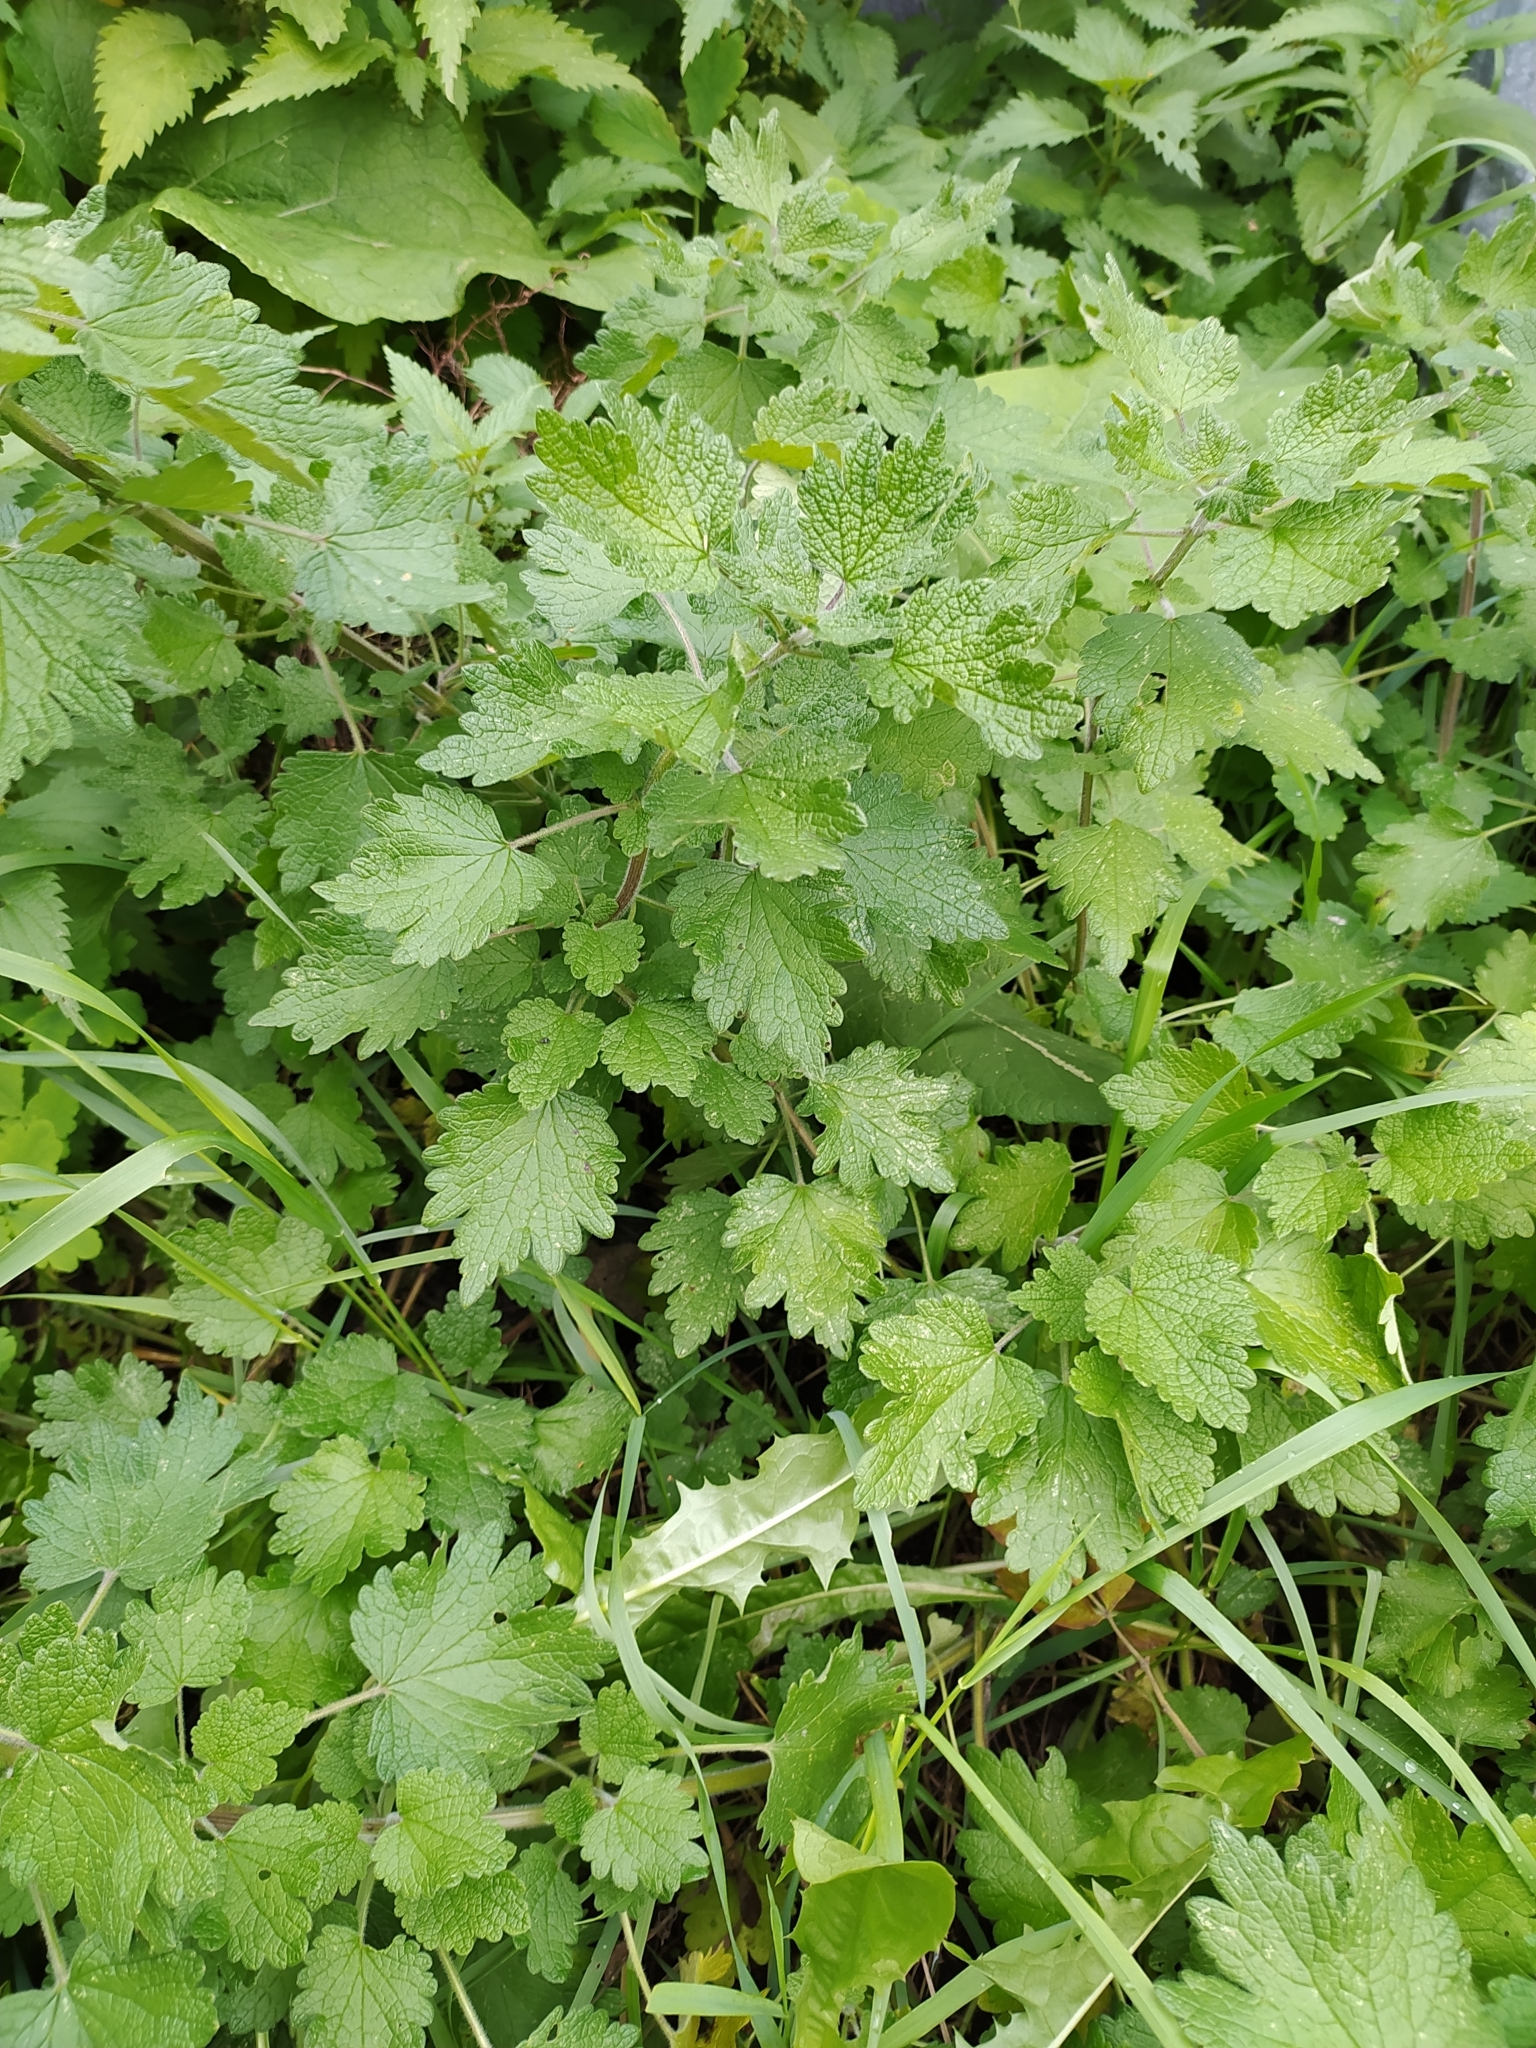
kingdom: Plantae
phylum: Tracheophyta
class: Magnoliopsida
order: Lamiales
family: Lamiaceae
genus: Leonurus
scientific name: Leonurus quinquelobatus
